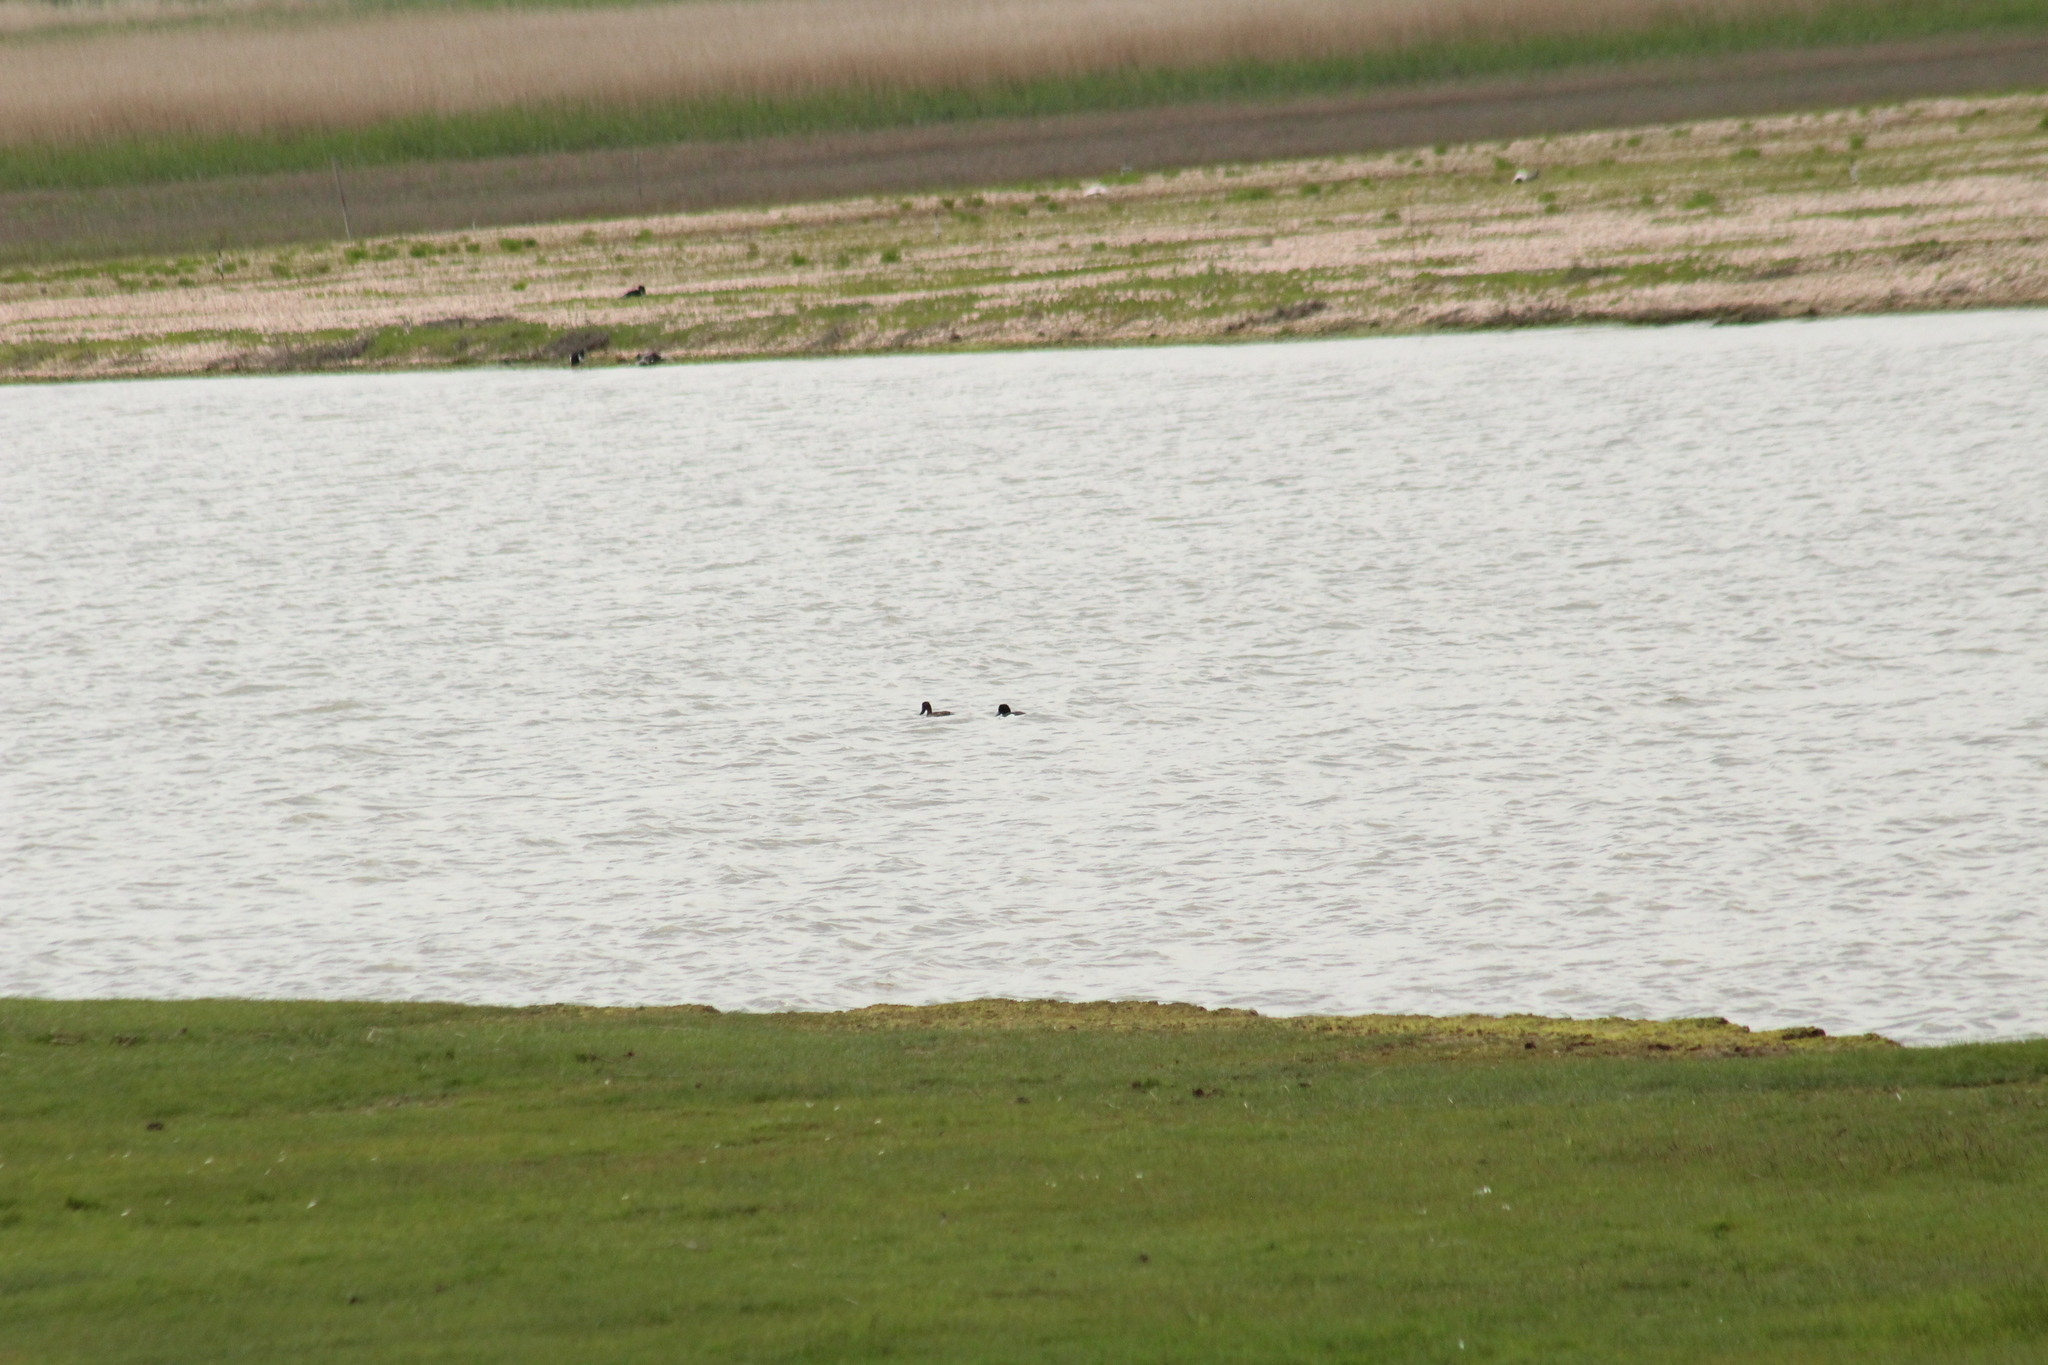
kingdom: Animalia
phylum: Chordata
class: Aves
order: Anseriformes
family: Anatidae
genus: Aythya
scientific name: Aythya fuligula
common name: Tufted duck
